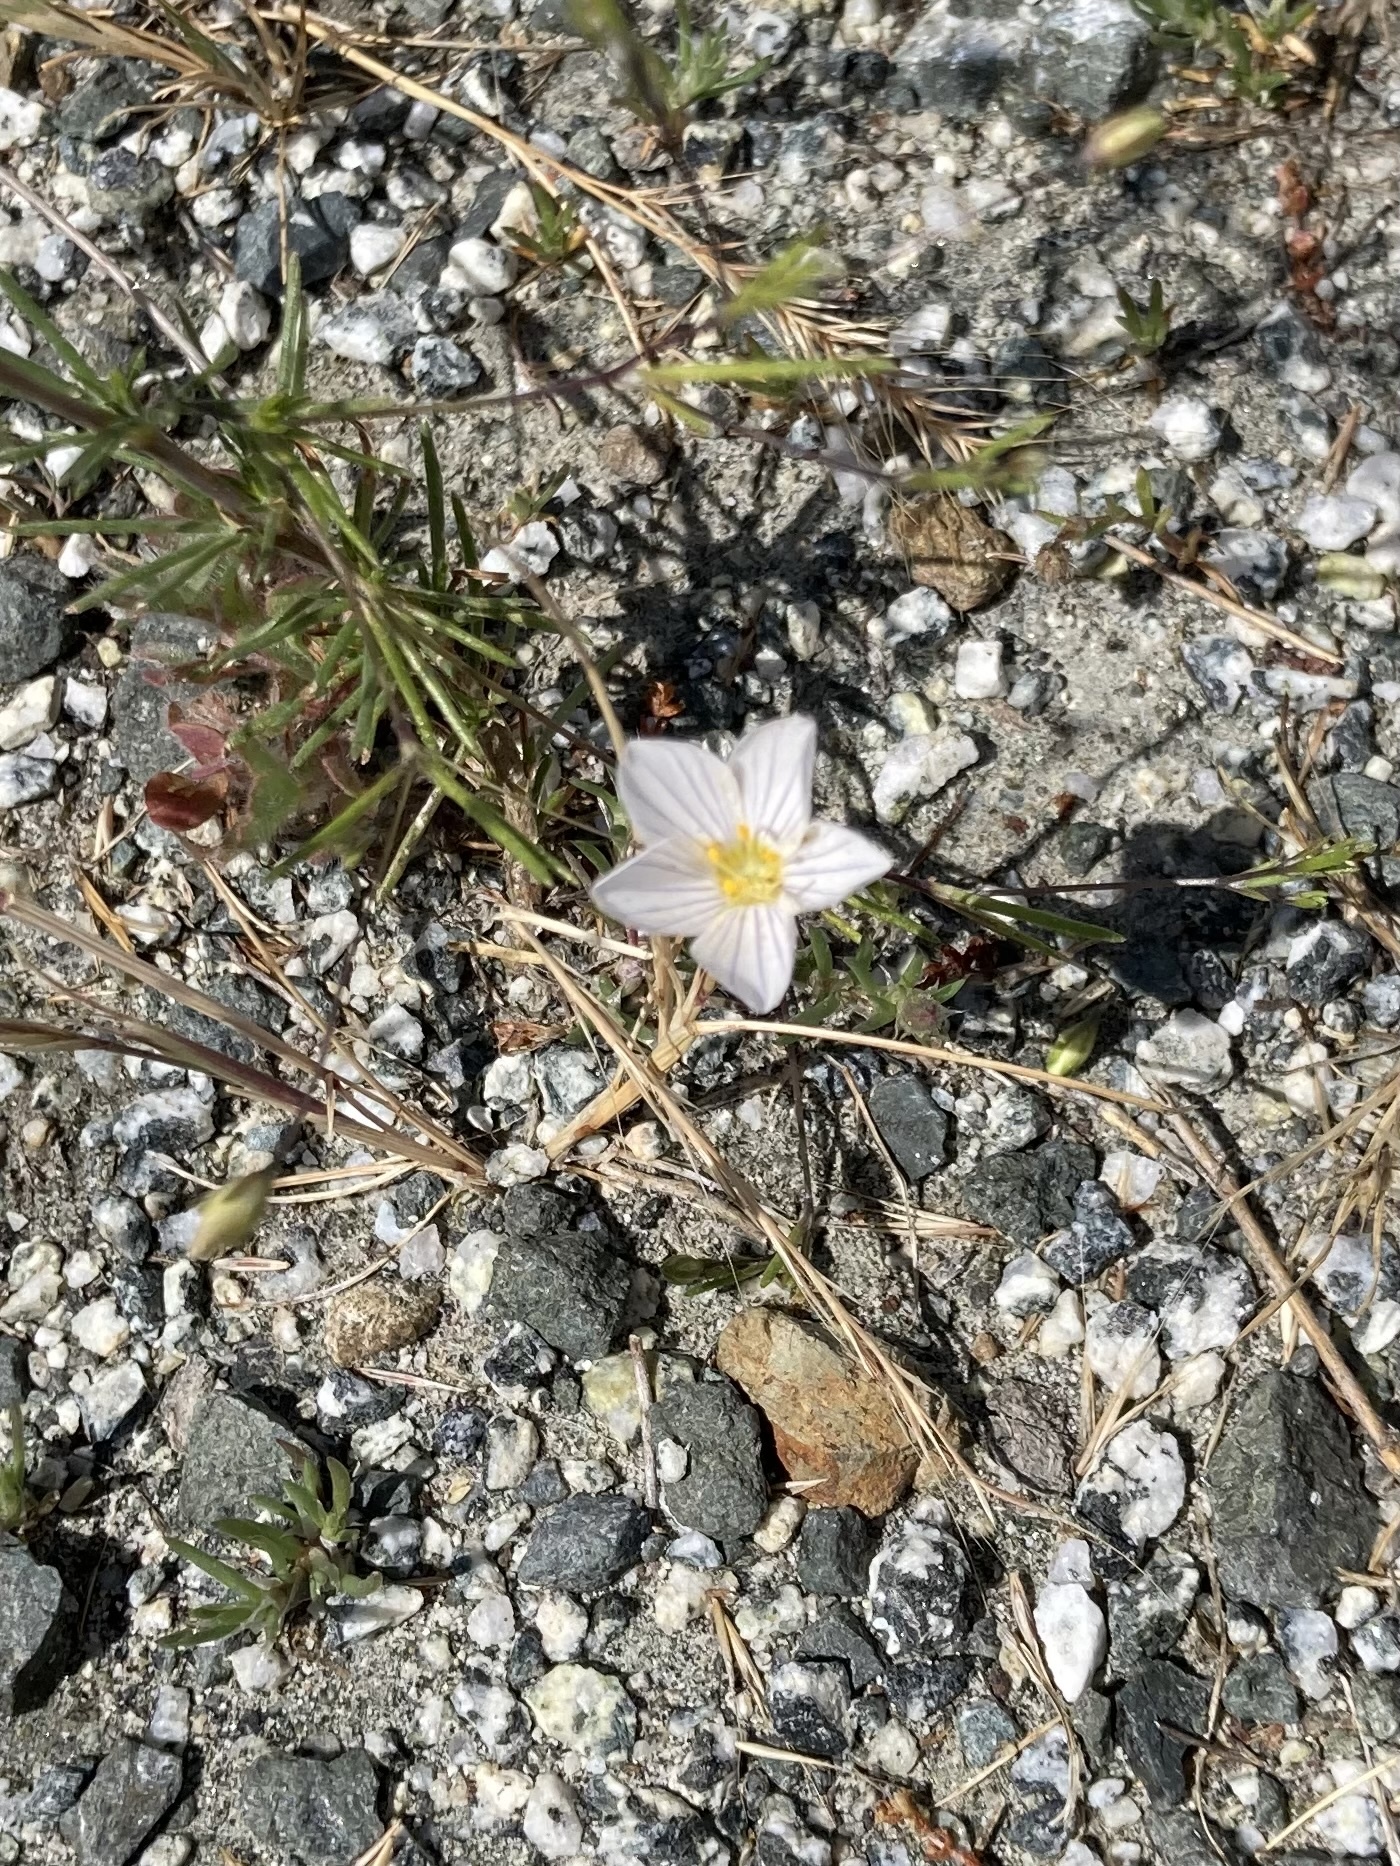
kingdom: Plantae
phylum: Tracheophyta
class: Magnoliopsida
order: Ericales
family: Polemoniaceae
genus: Leptosiphon
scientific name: Leptosiphon liniflorus
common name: Narrowflower flaxflower
